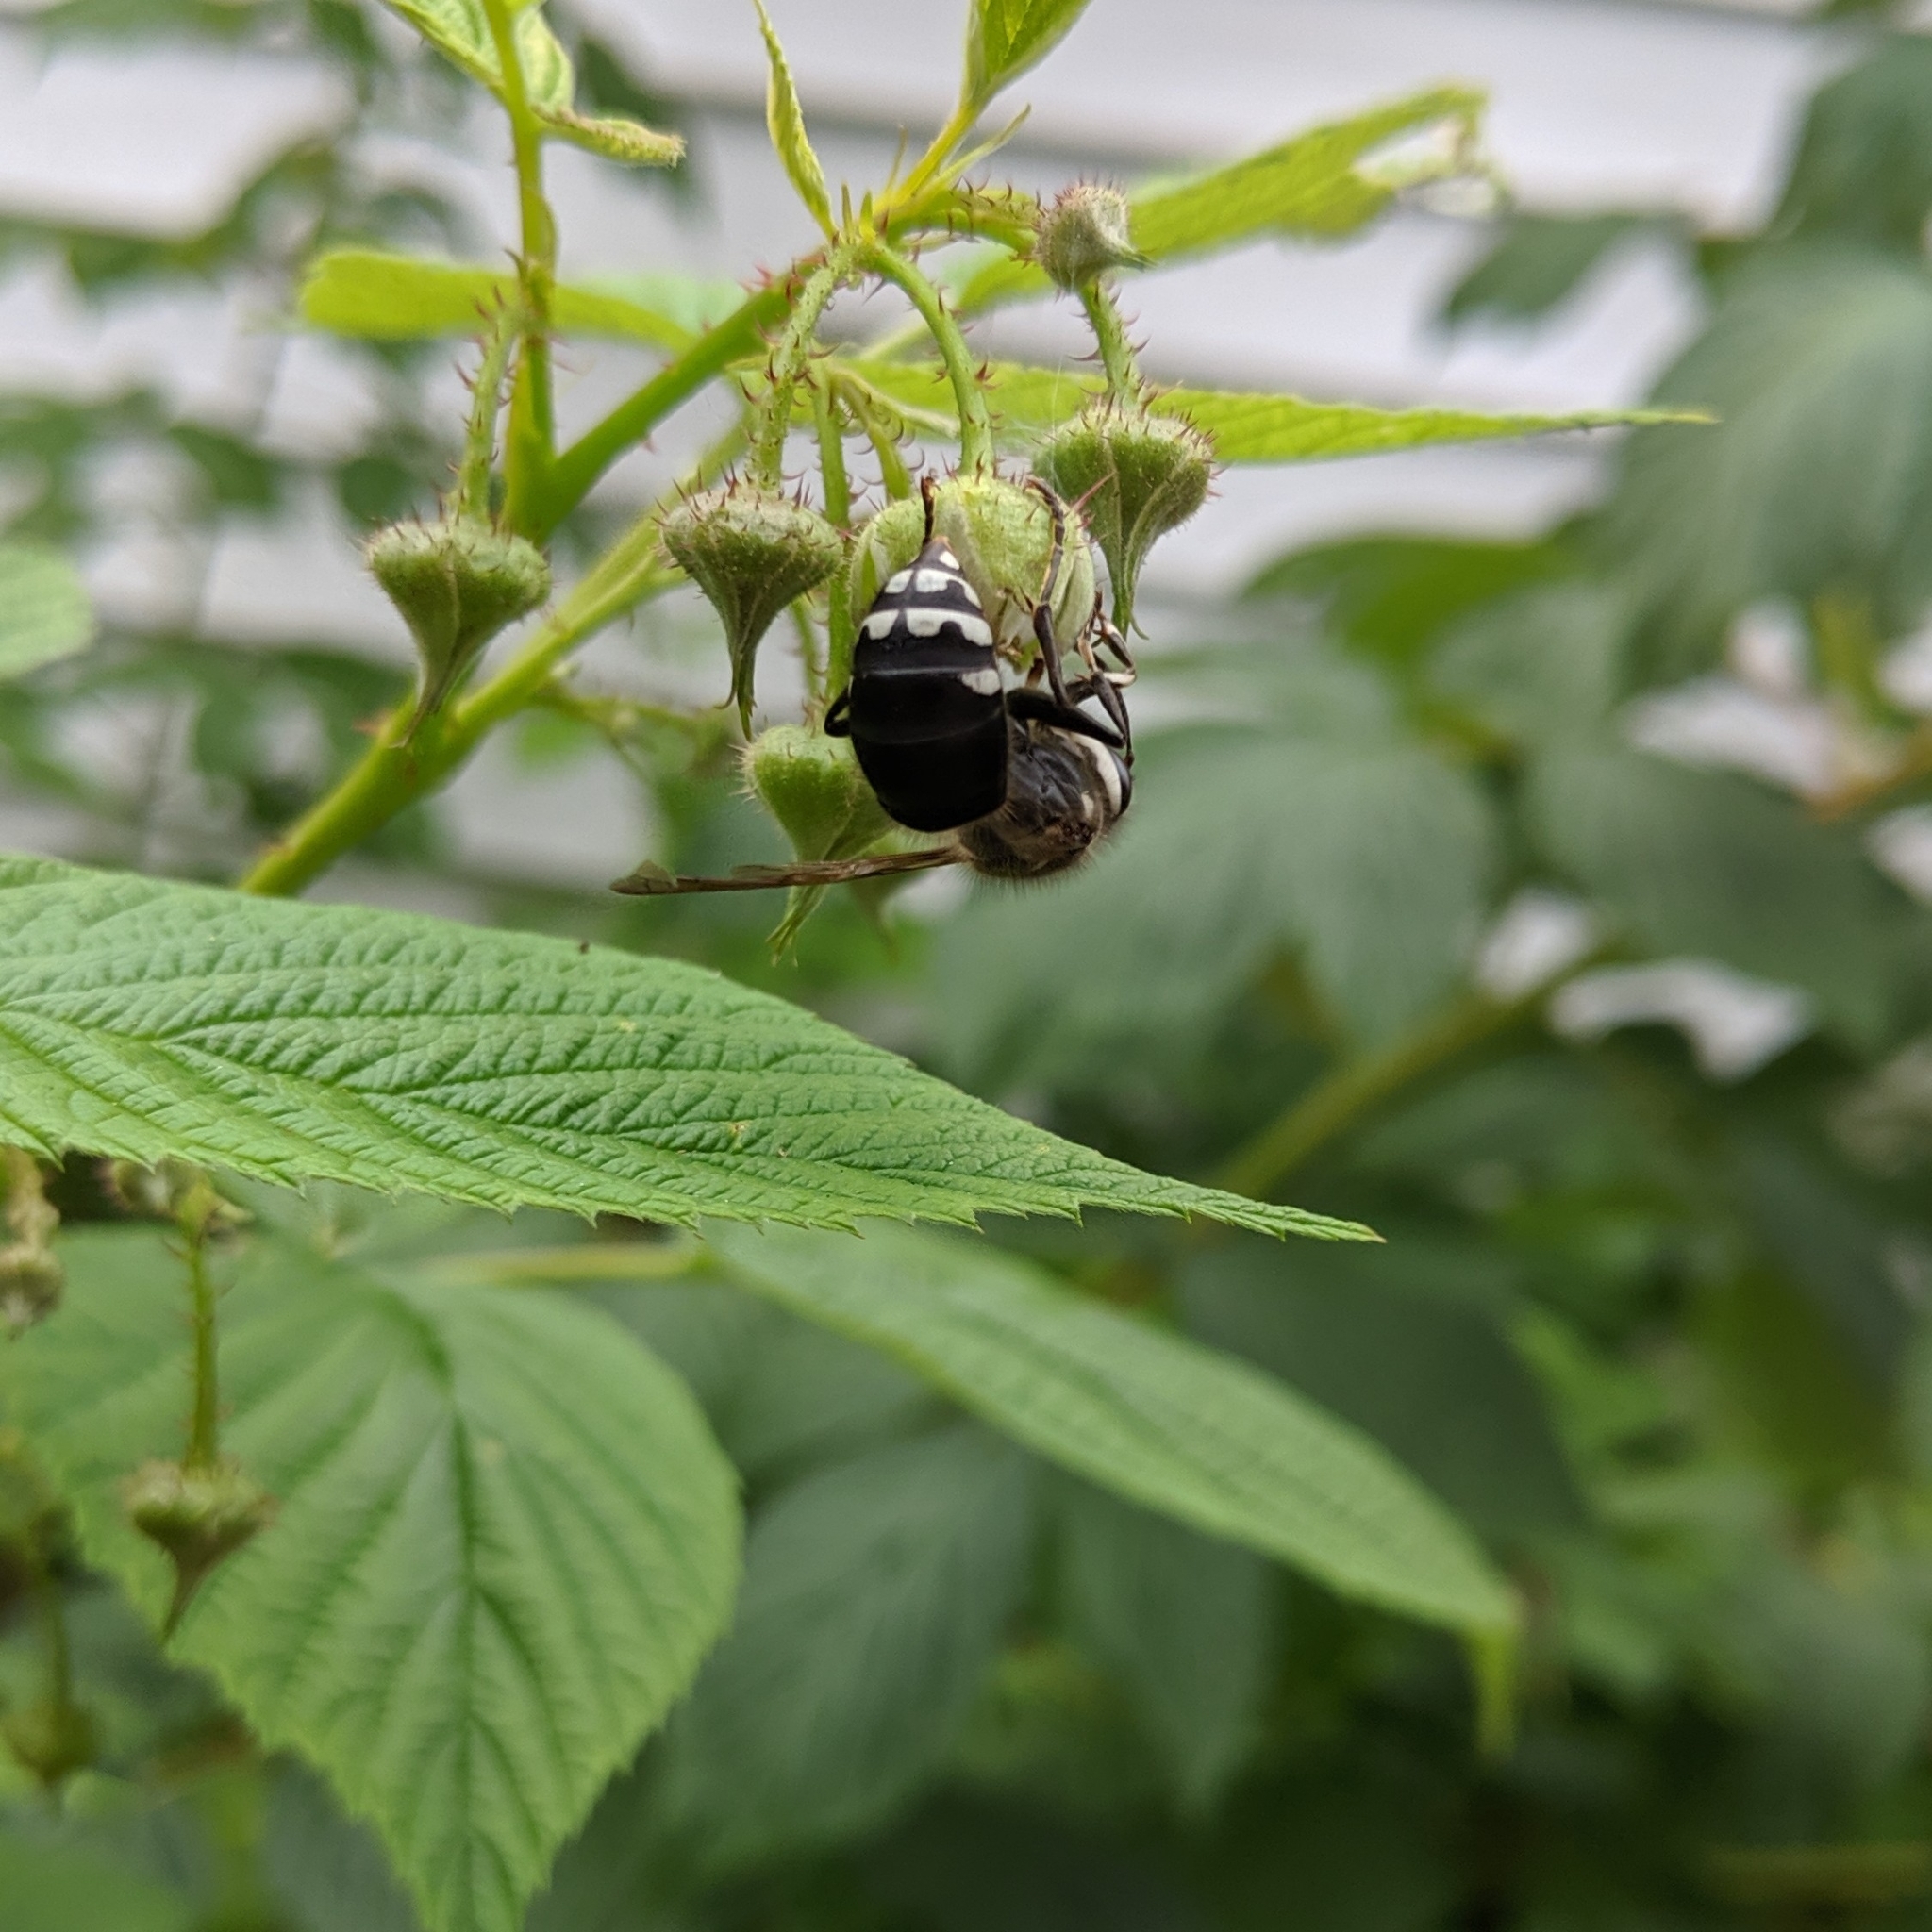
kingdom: Animalia
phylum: Arthropoda
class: Insecta
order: Hymenoptera
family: Vespidae
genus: Dolichovespula
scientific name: Dolichovespula maculata
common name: Bald-faced hornet
